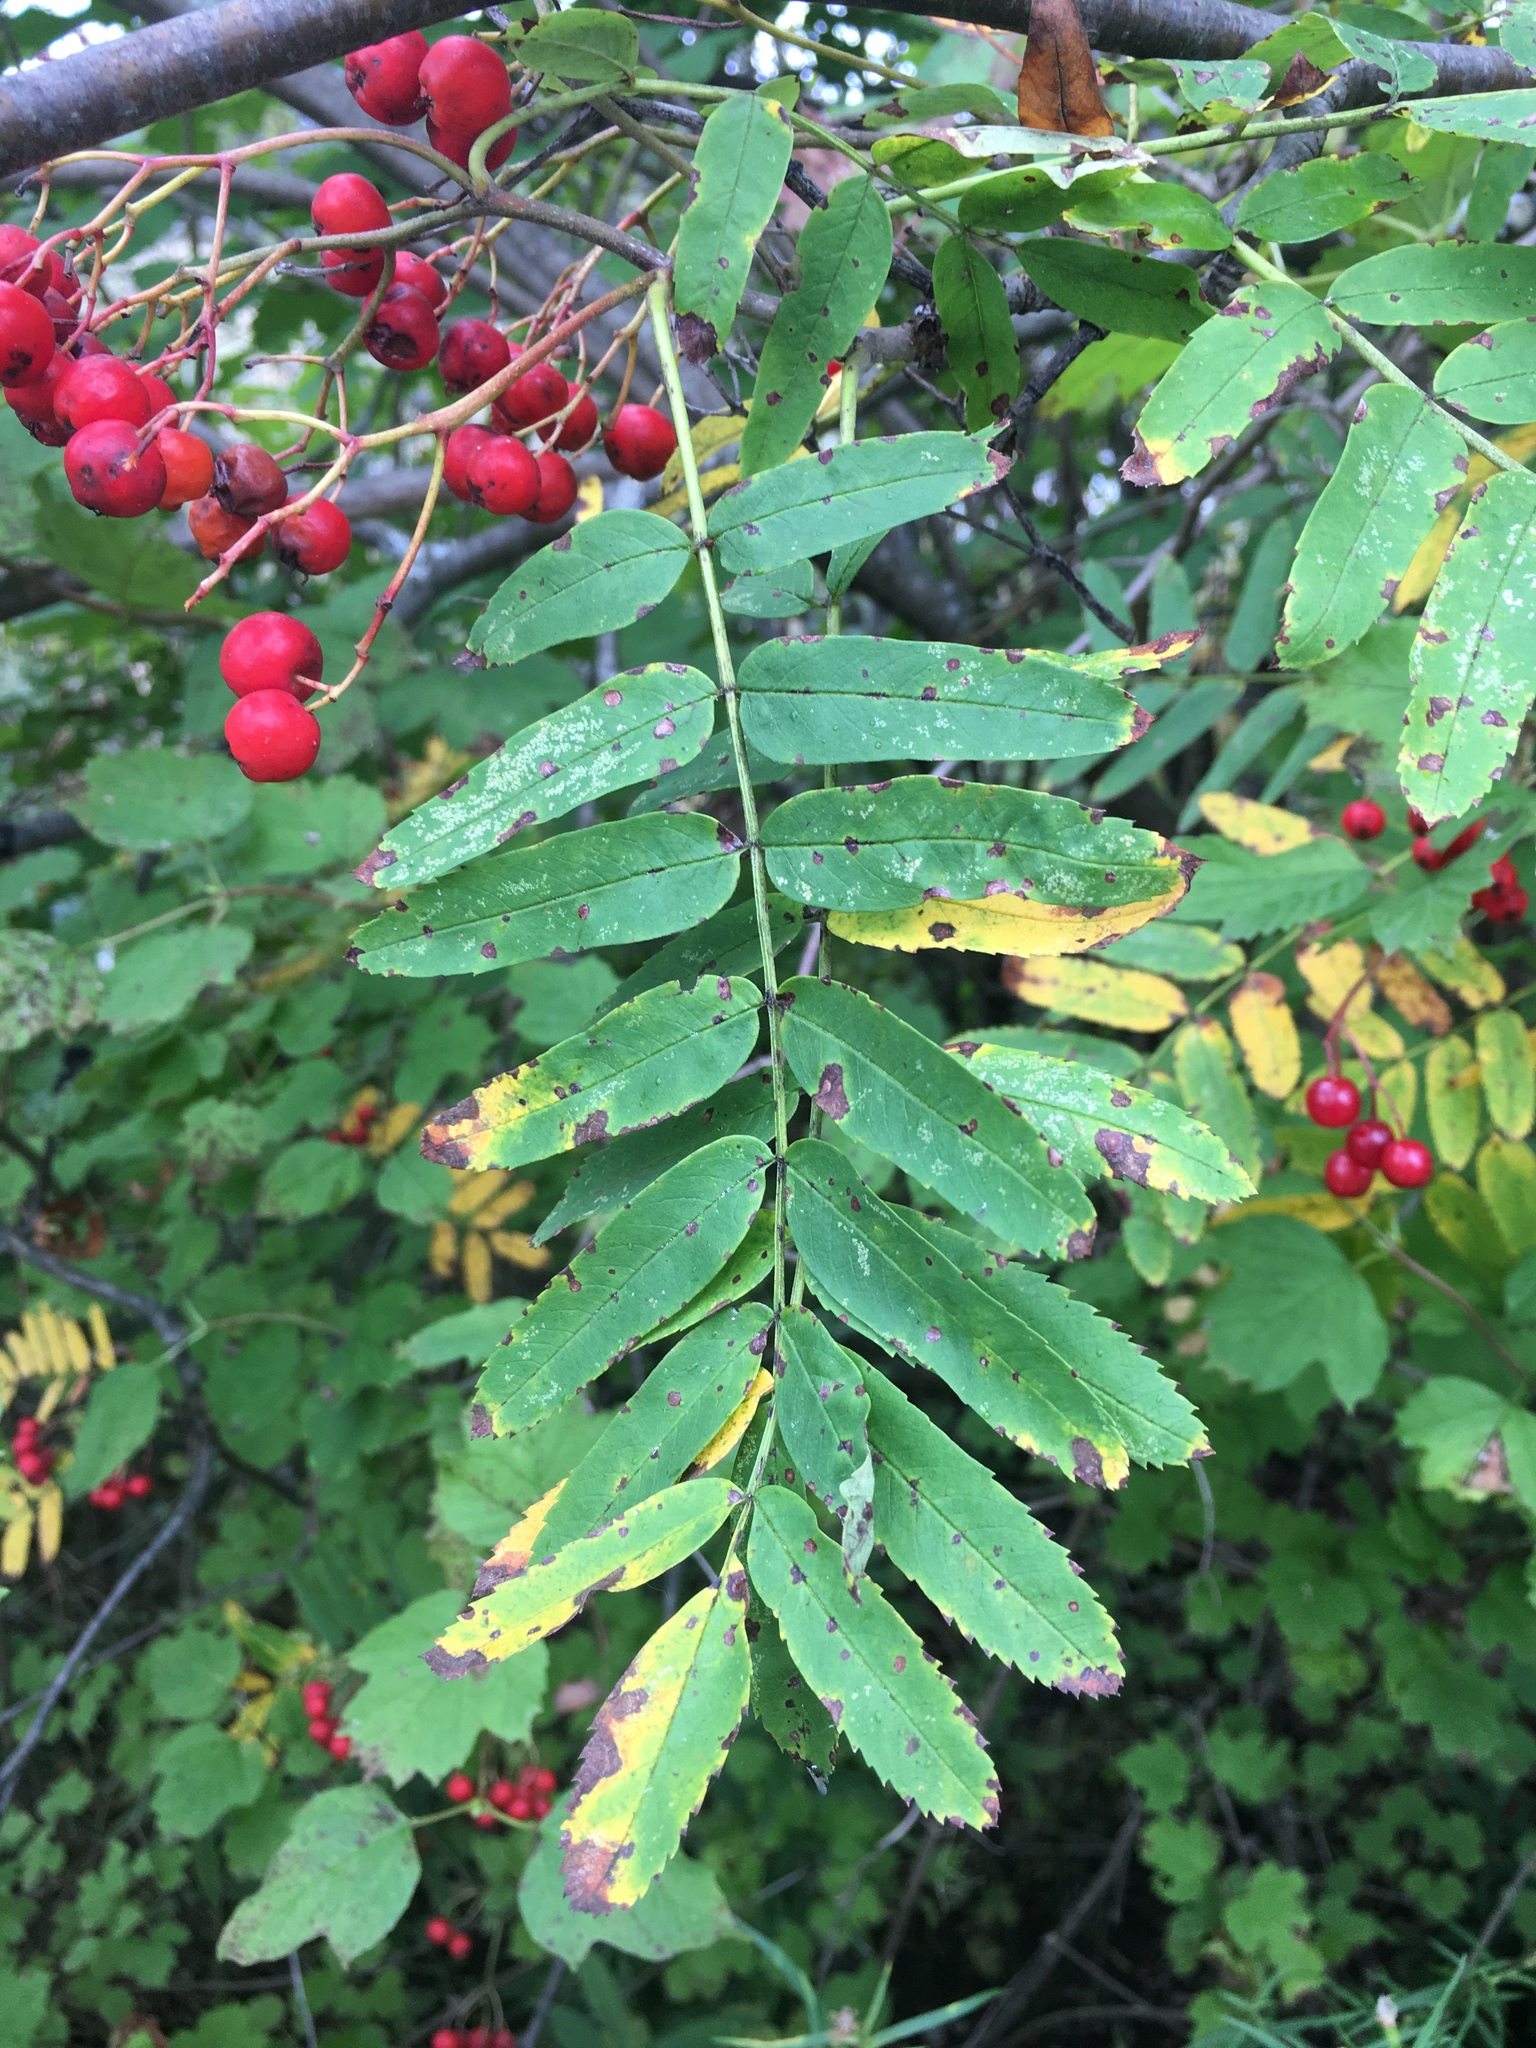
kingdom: Plantae
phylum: Tracheophyta
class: Magnoliopsida
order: Rosales
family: Rosaceae
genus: Sorbus
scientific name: Sorbus americana
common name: American mountain-ash
